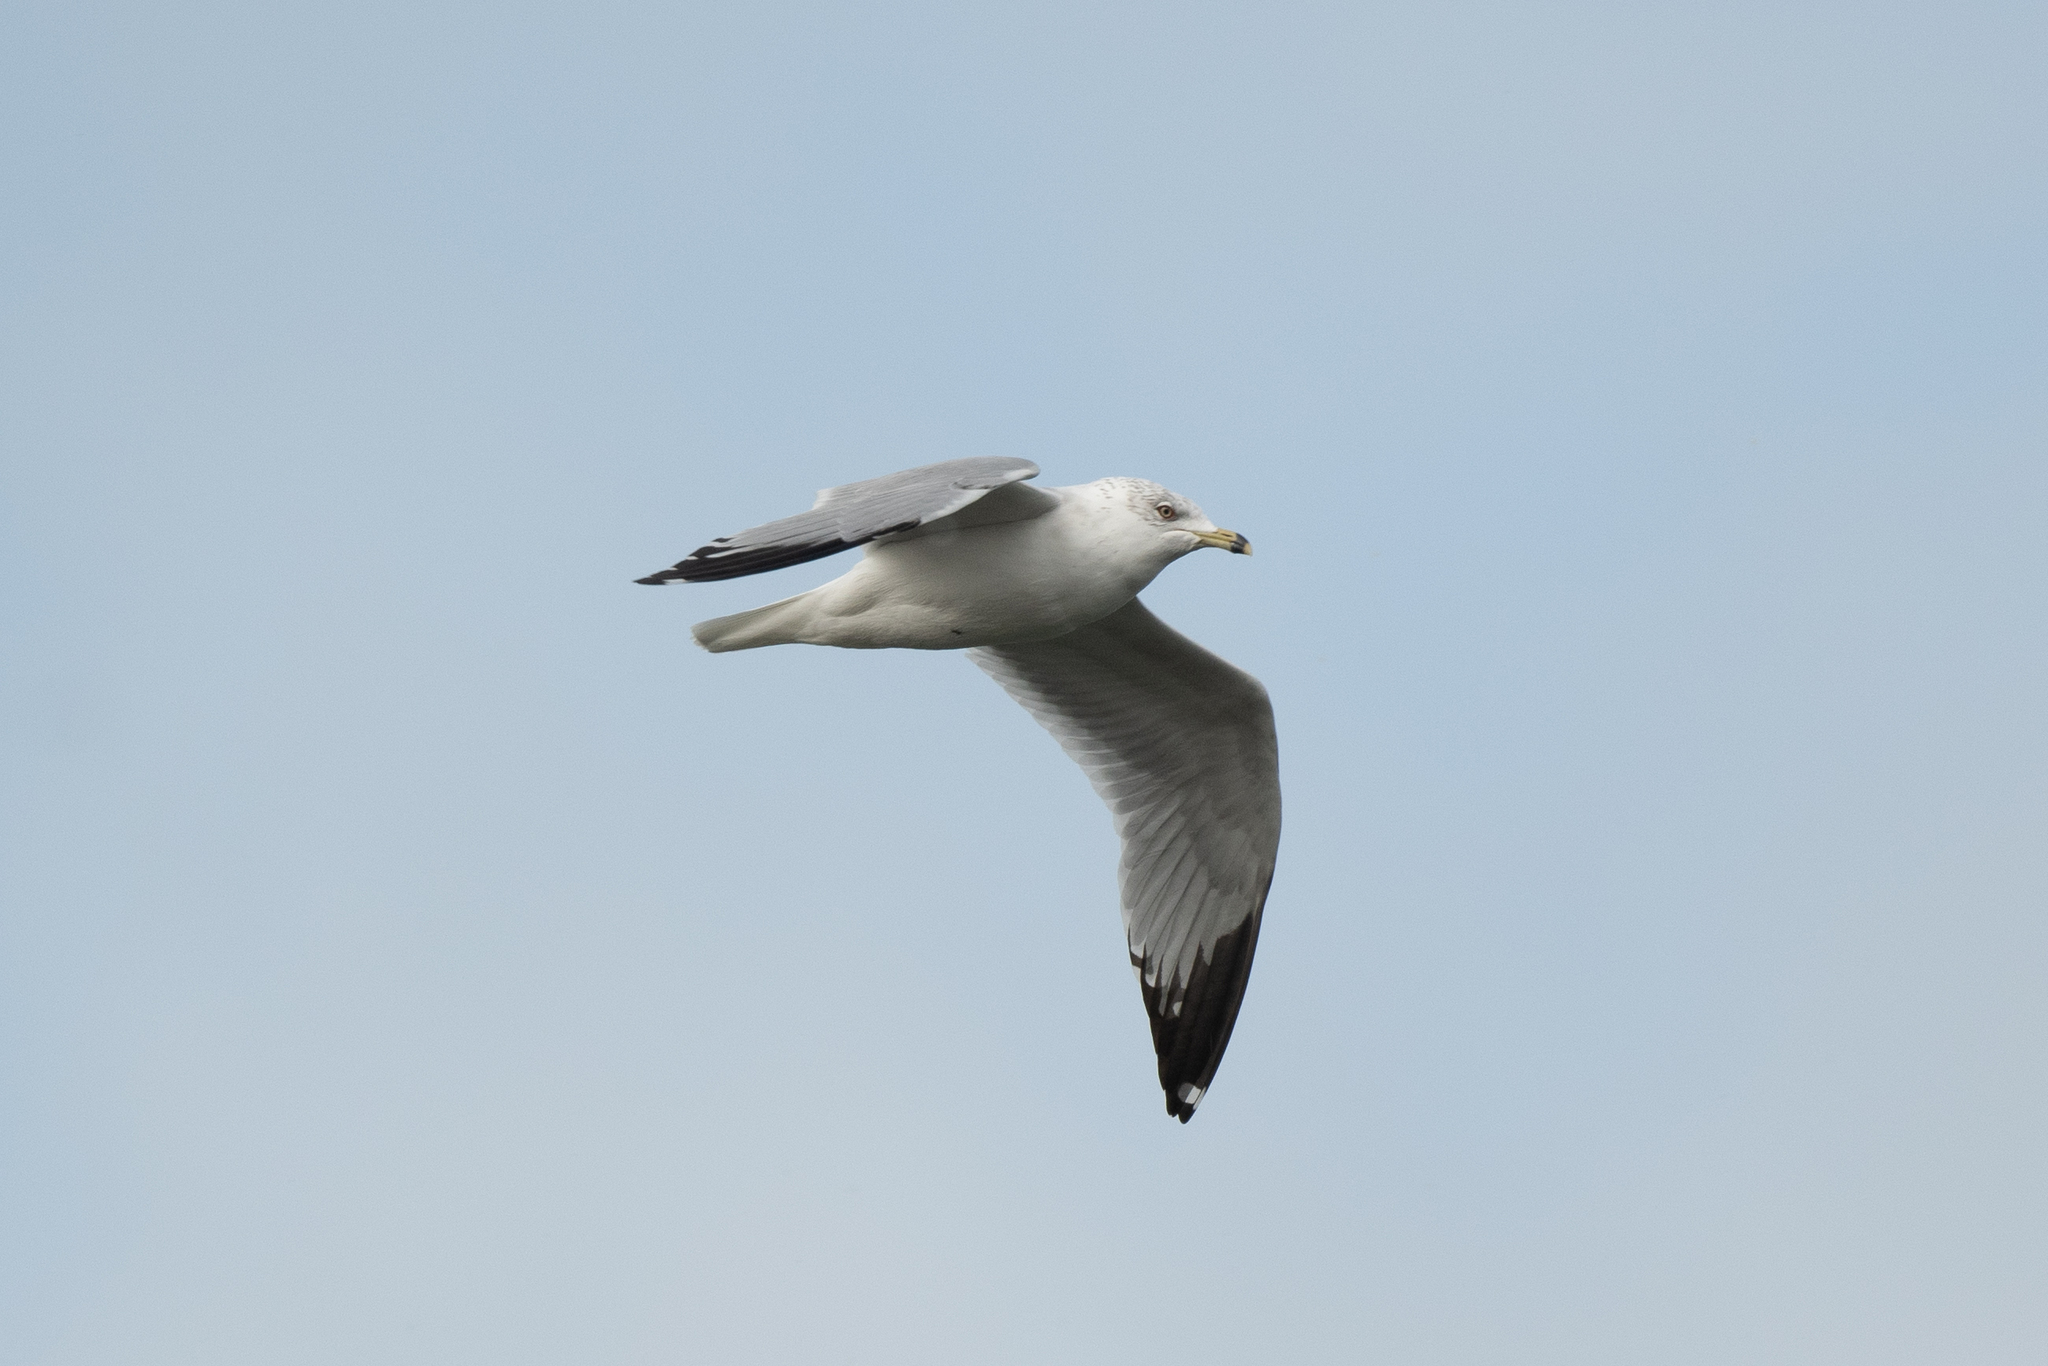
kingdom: Animalia
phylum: Chordata
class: Aves
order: Charadriiformes
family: Laridae
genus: Larus
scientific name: Larus delawarensis
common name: Ring-billed gull
